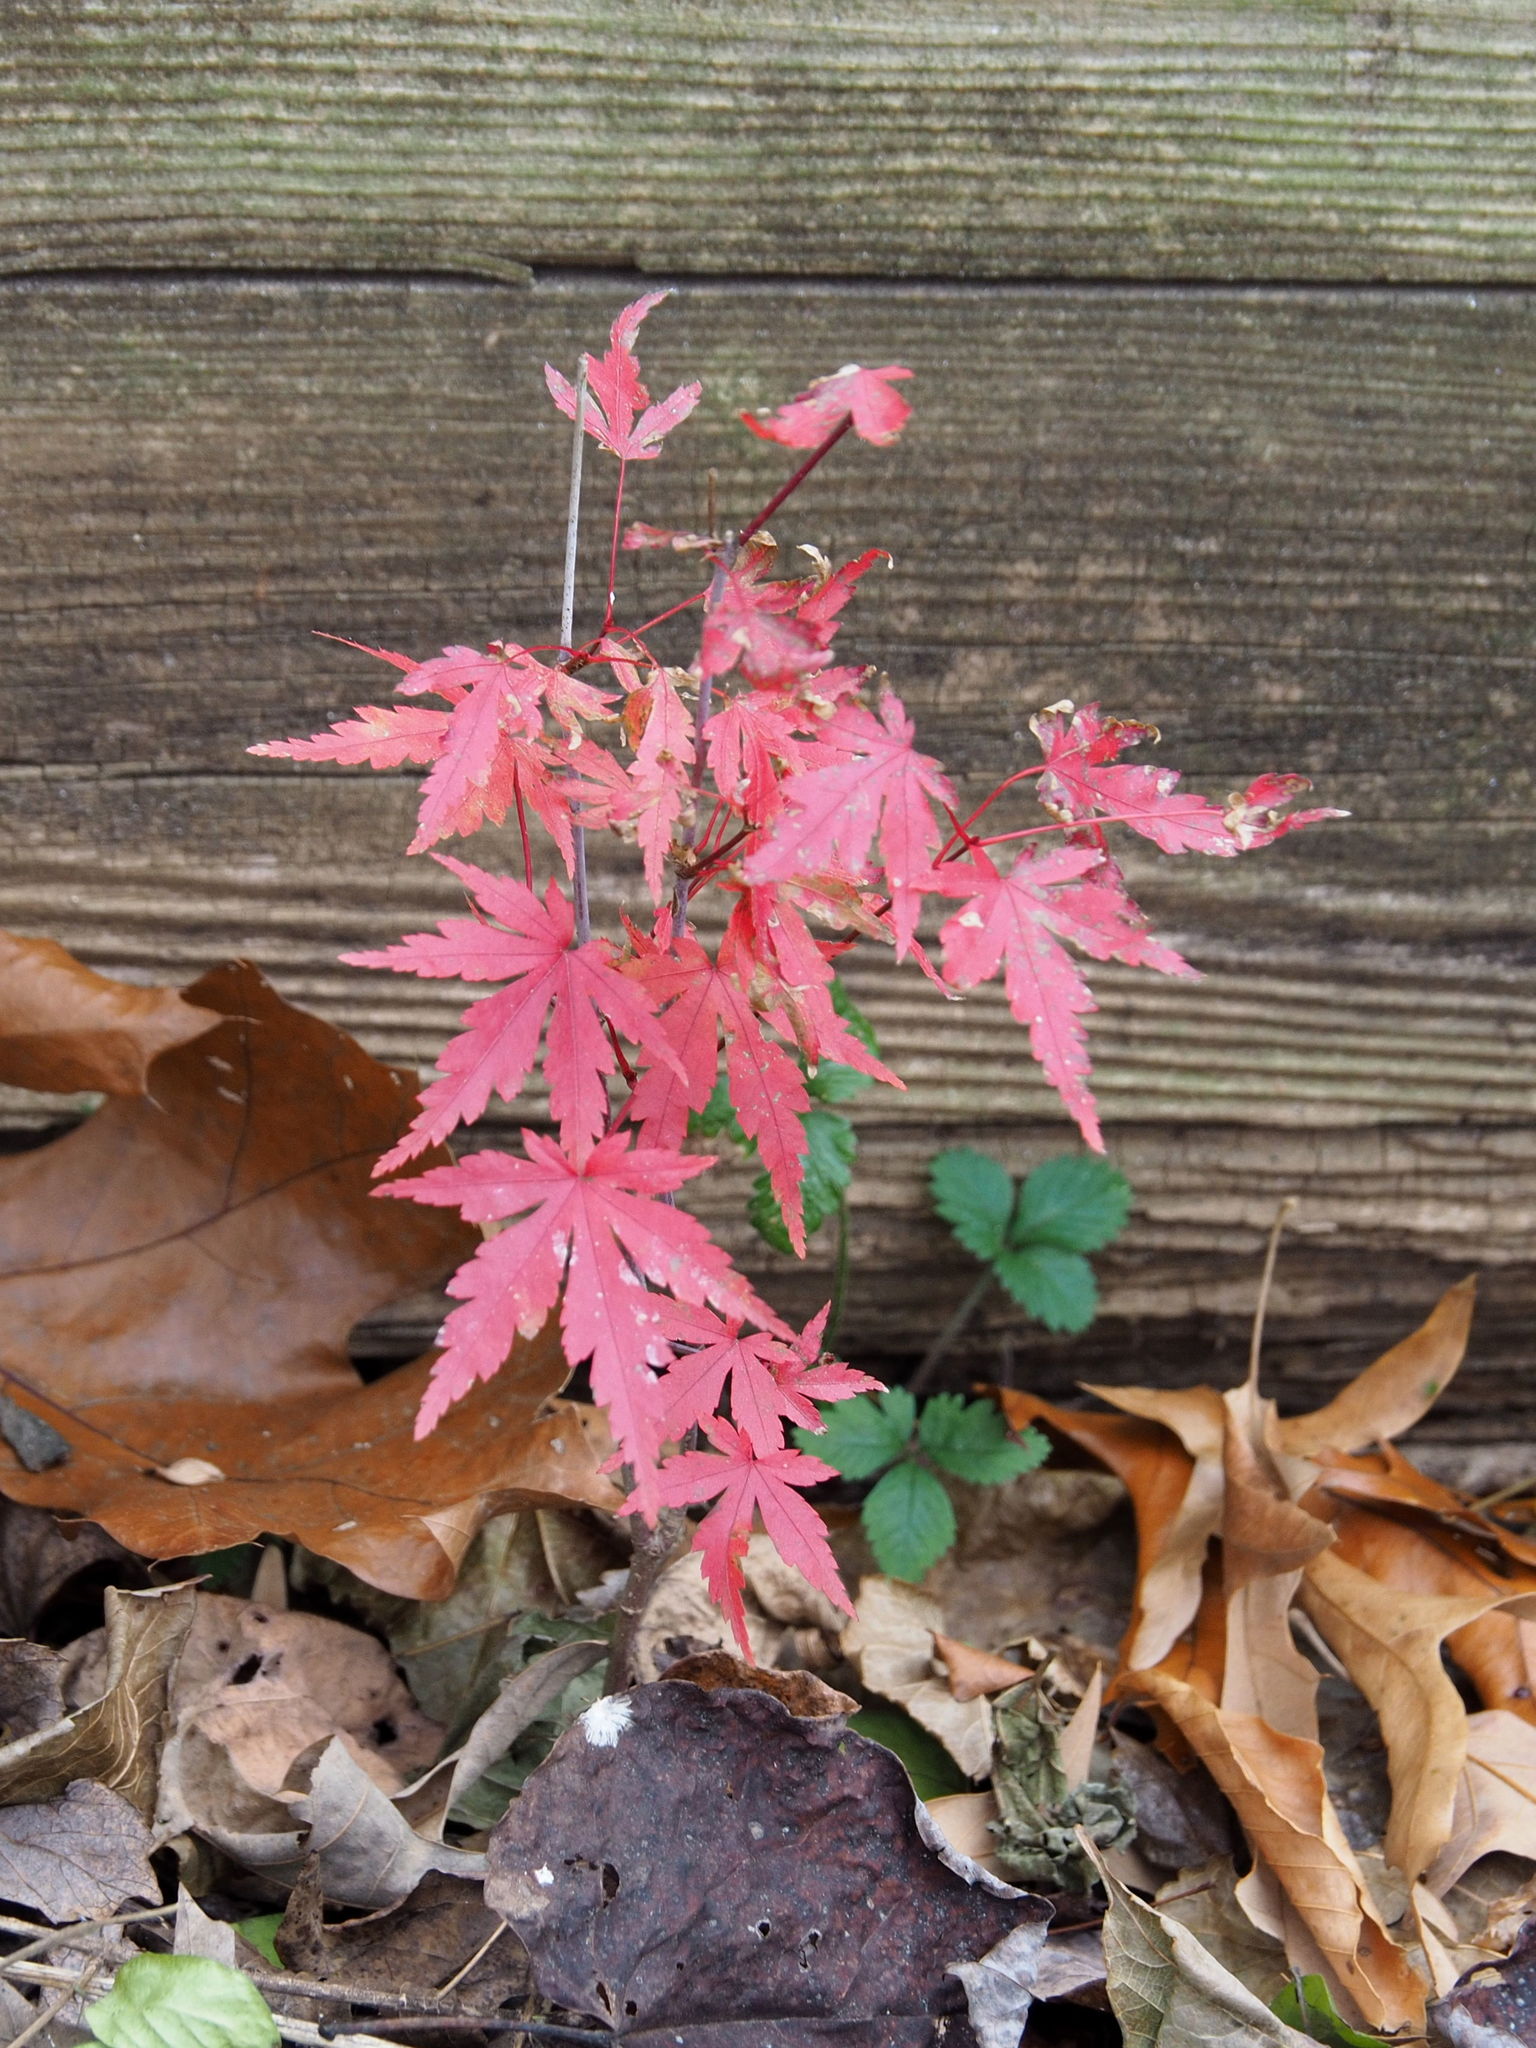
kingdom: Plantae
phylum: Tracheophyta
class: Magnoliopsida
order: Sapindales
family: Sapindaceae
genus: Acer
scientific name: Acer palmatum
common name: Japanese maple
